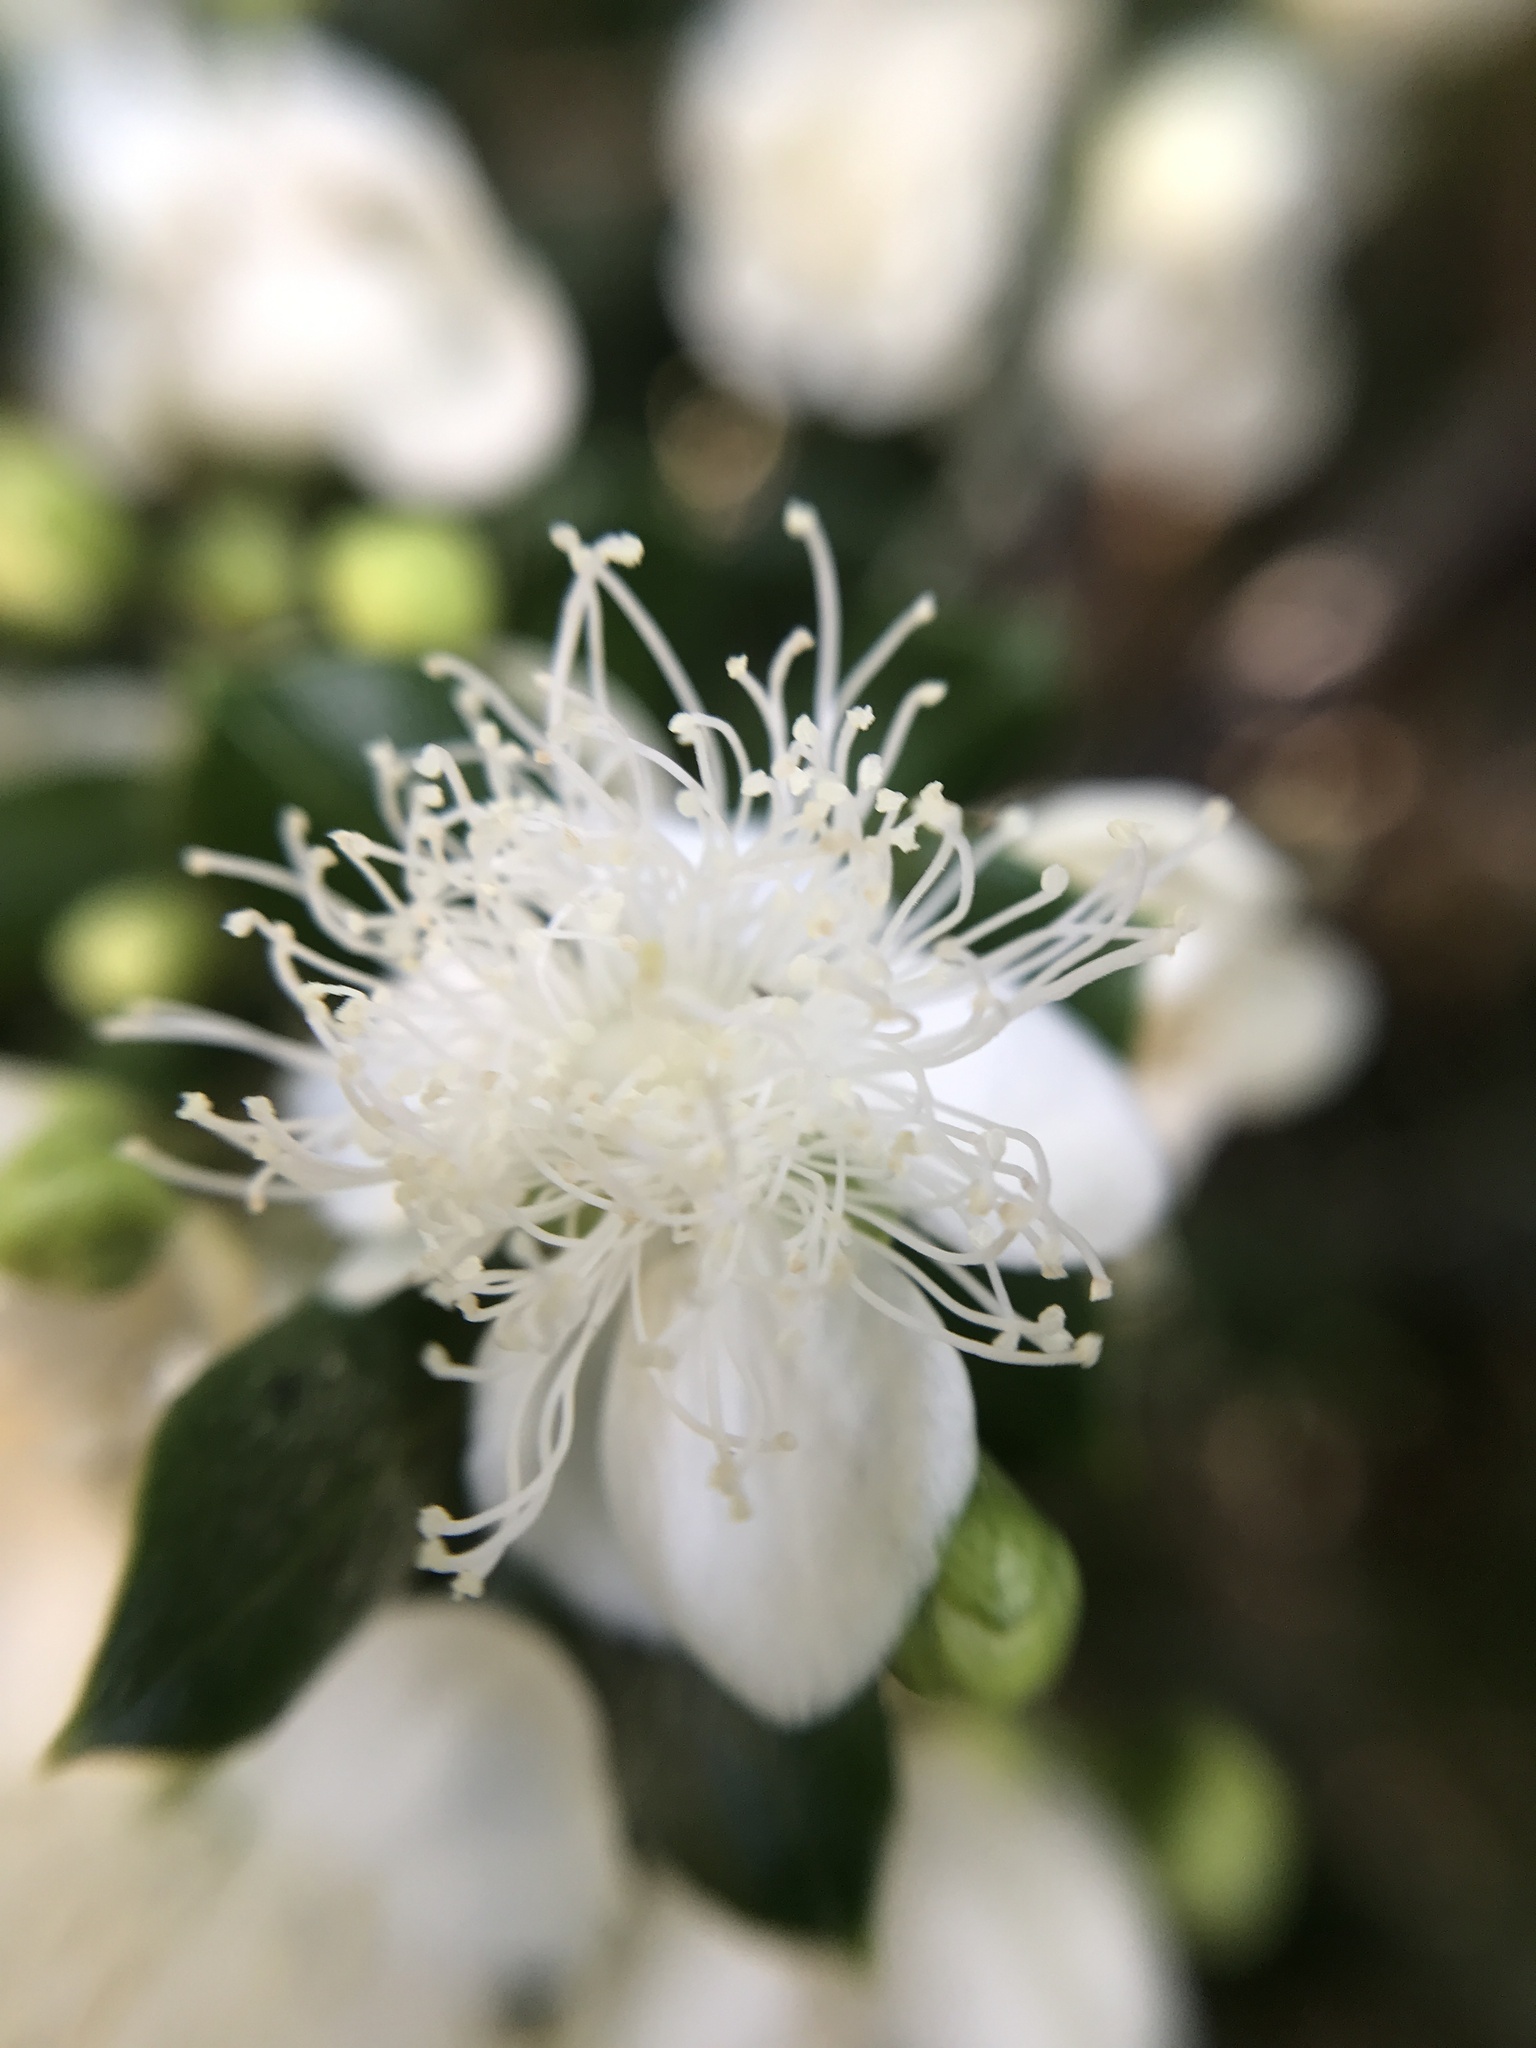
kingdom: Plantae
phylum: Tracheophyta
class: Magnoliopsida
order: Myrtales
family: Myrtaceae
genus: Luma
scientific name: Luma apiculata
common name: Chilean myrtle
